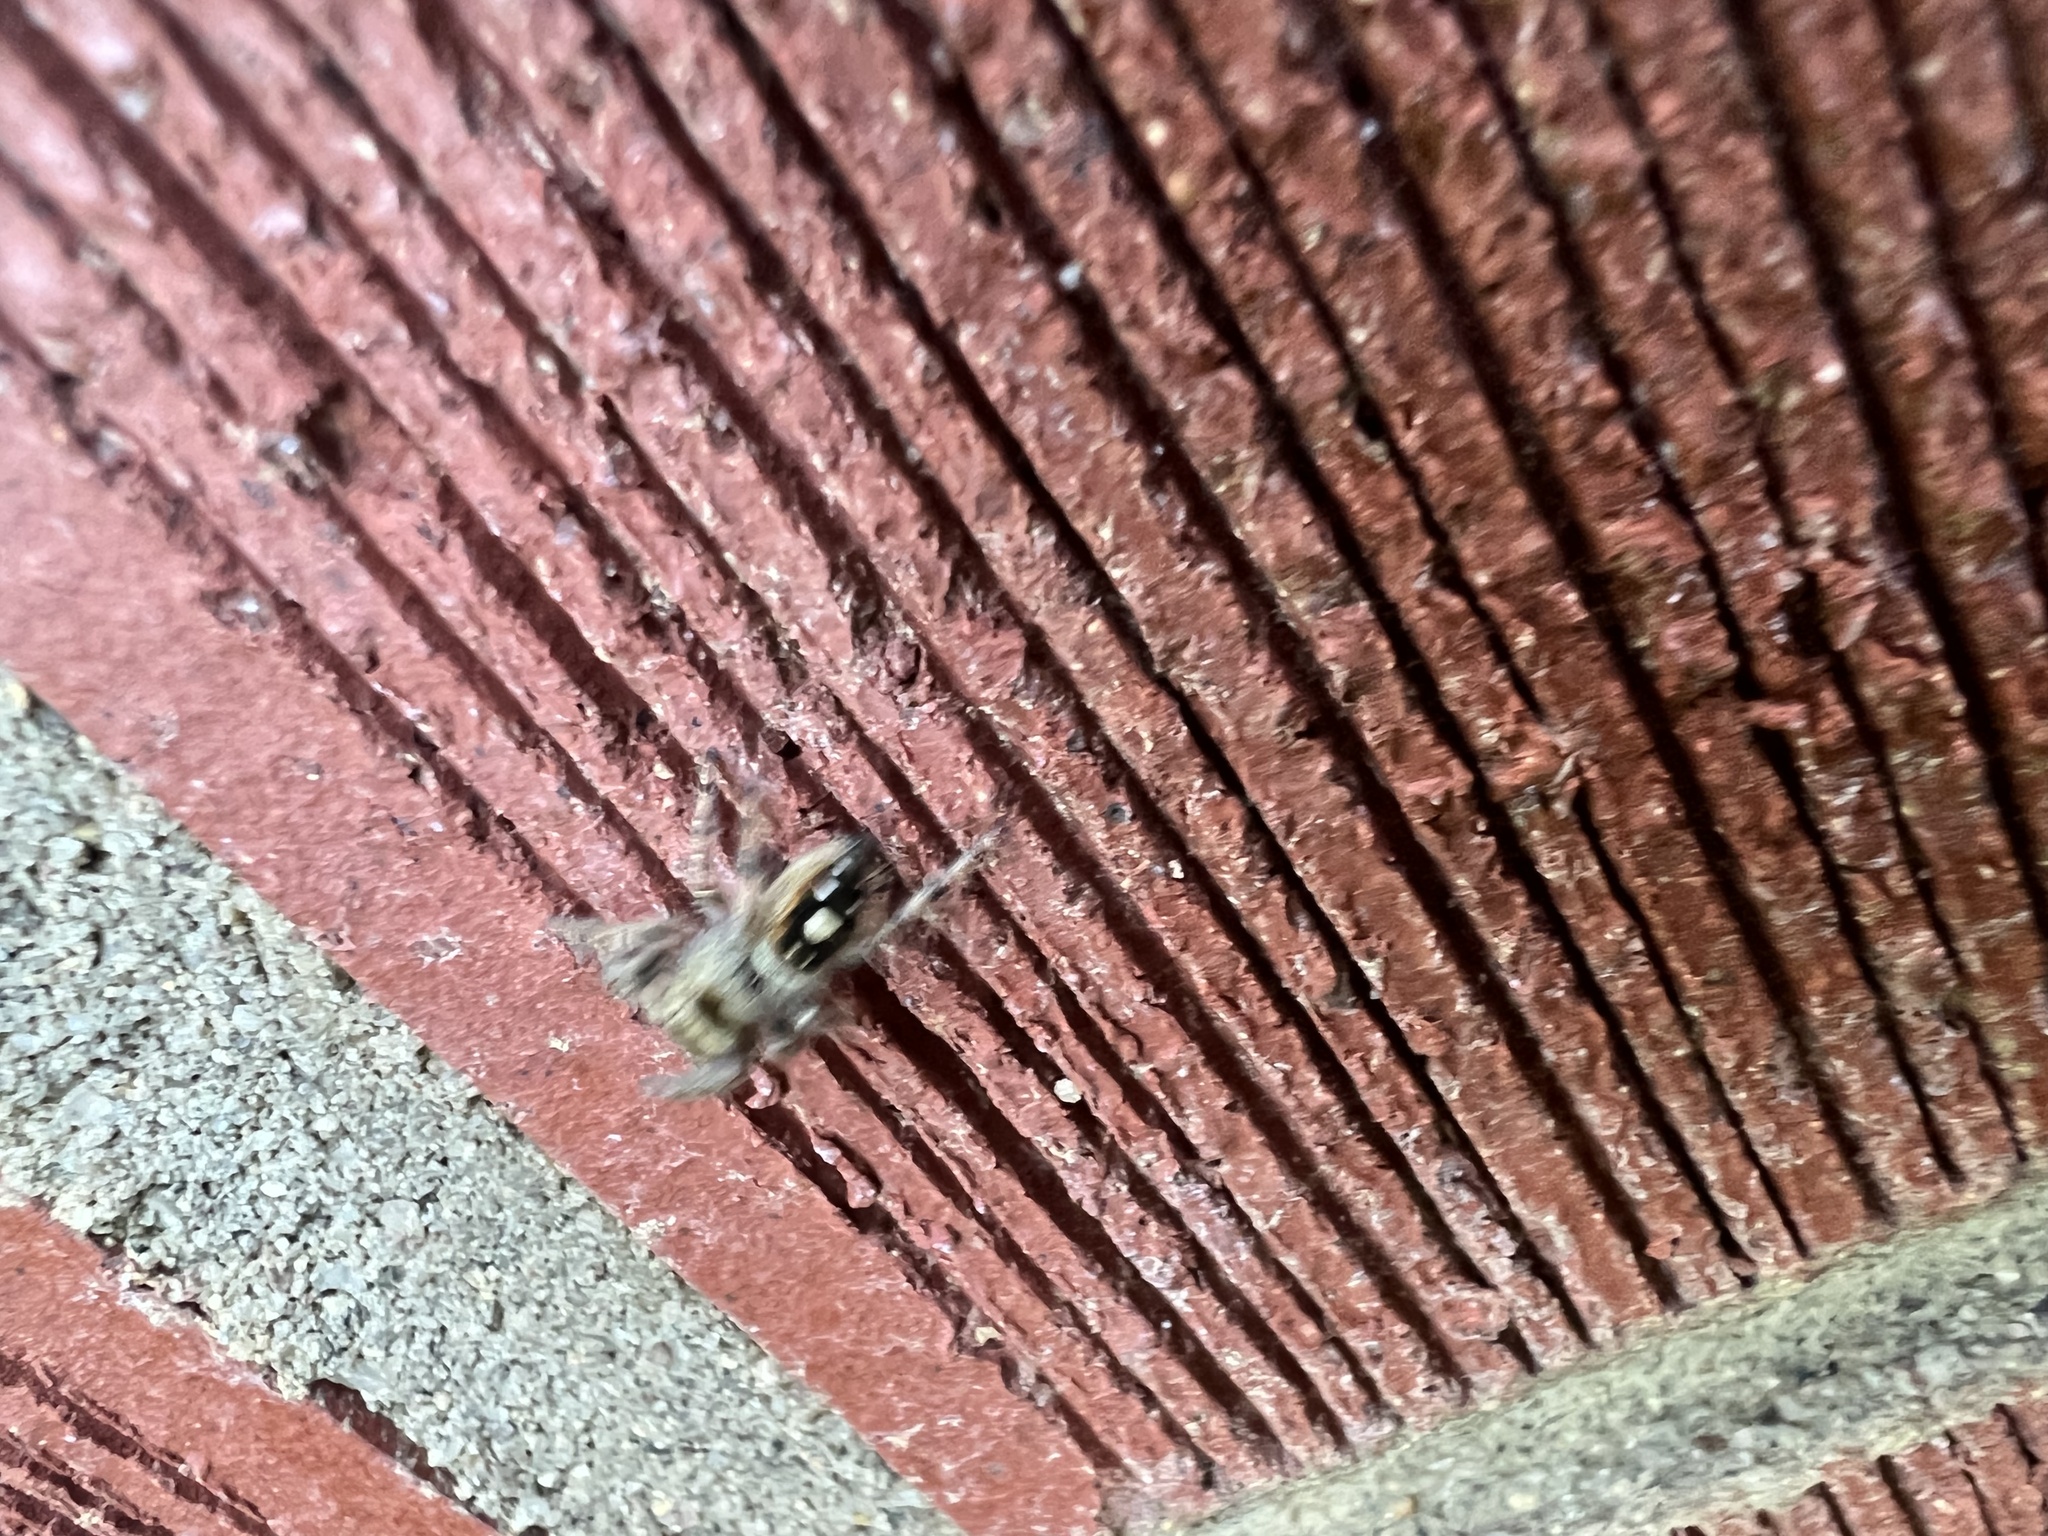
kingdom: Animalia
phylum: Arthropoda
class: Arachnida
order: Araneae
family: Salticidae
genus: Phidippus
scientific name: Phidippus audax
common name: Bold jumper
